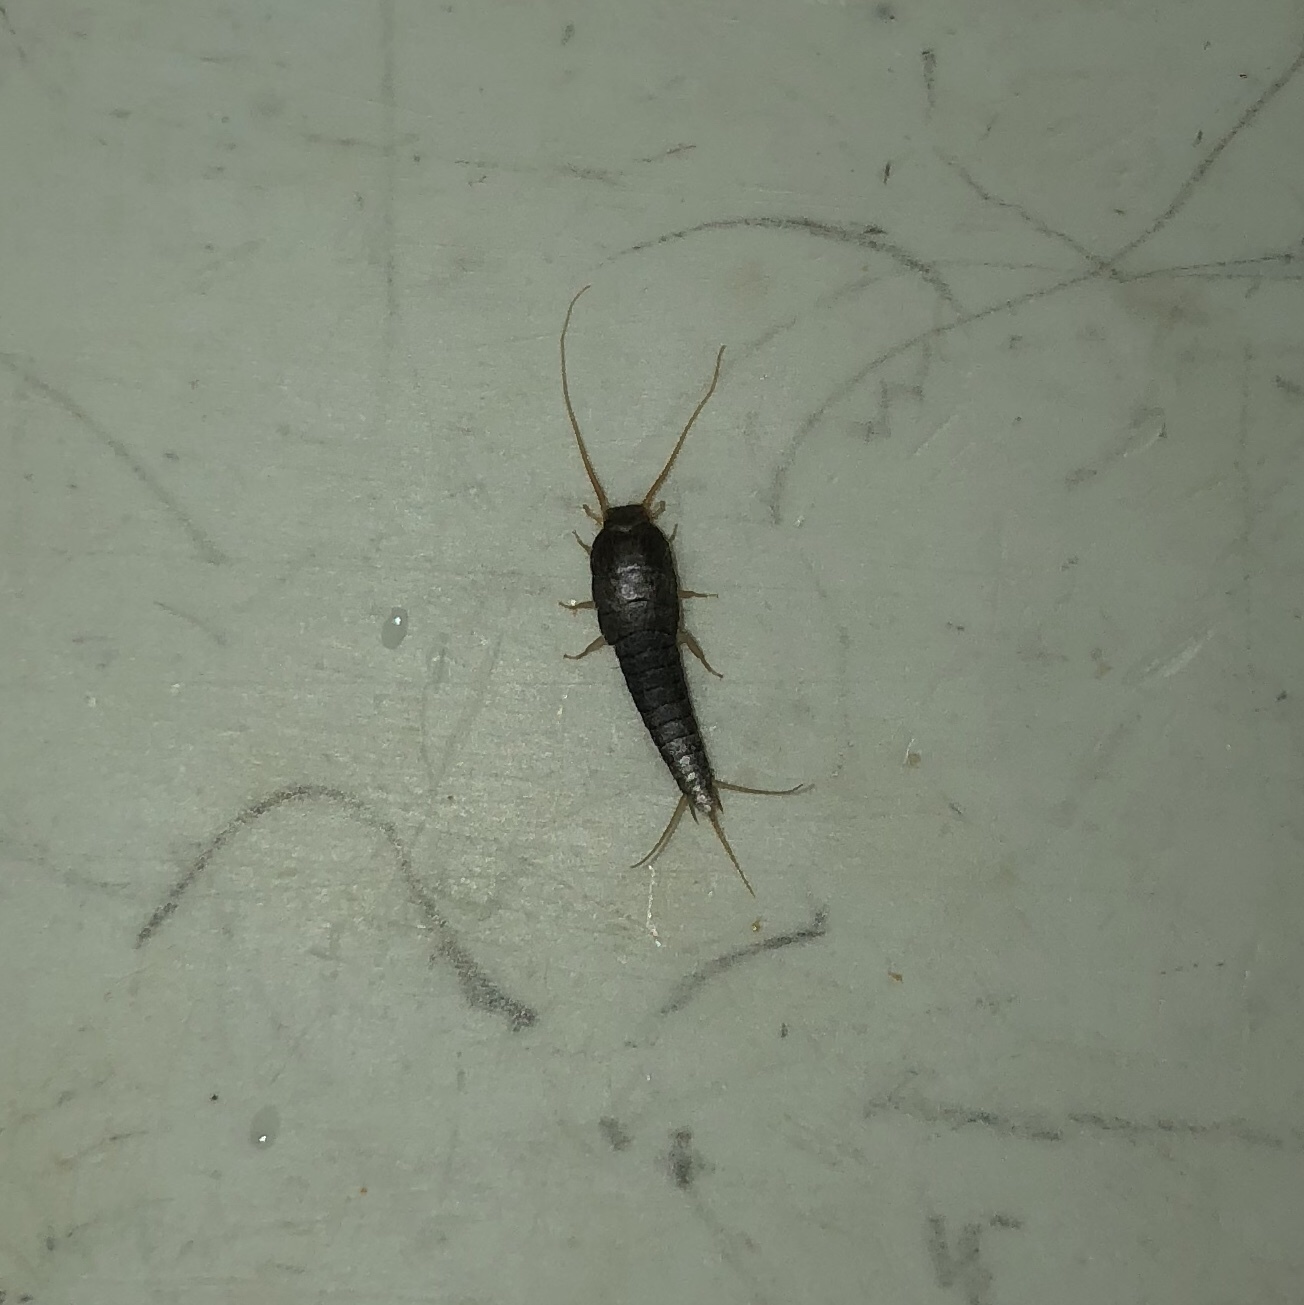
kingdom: Animalia
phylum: Arthropoda
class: Insecta
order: Zygentoma
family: Lepismatidae
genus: Lepisma
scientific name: Lepisma saccharinum
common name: Silverfish
